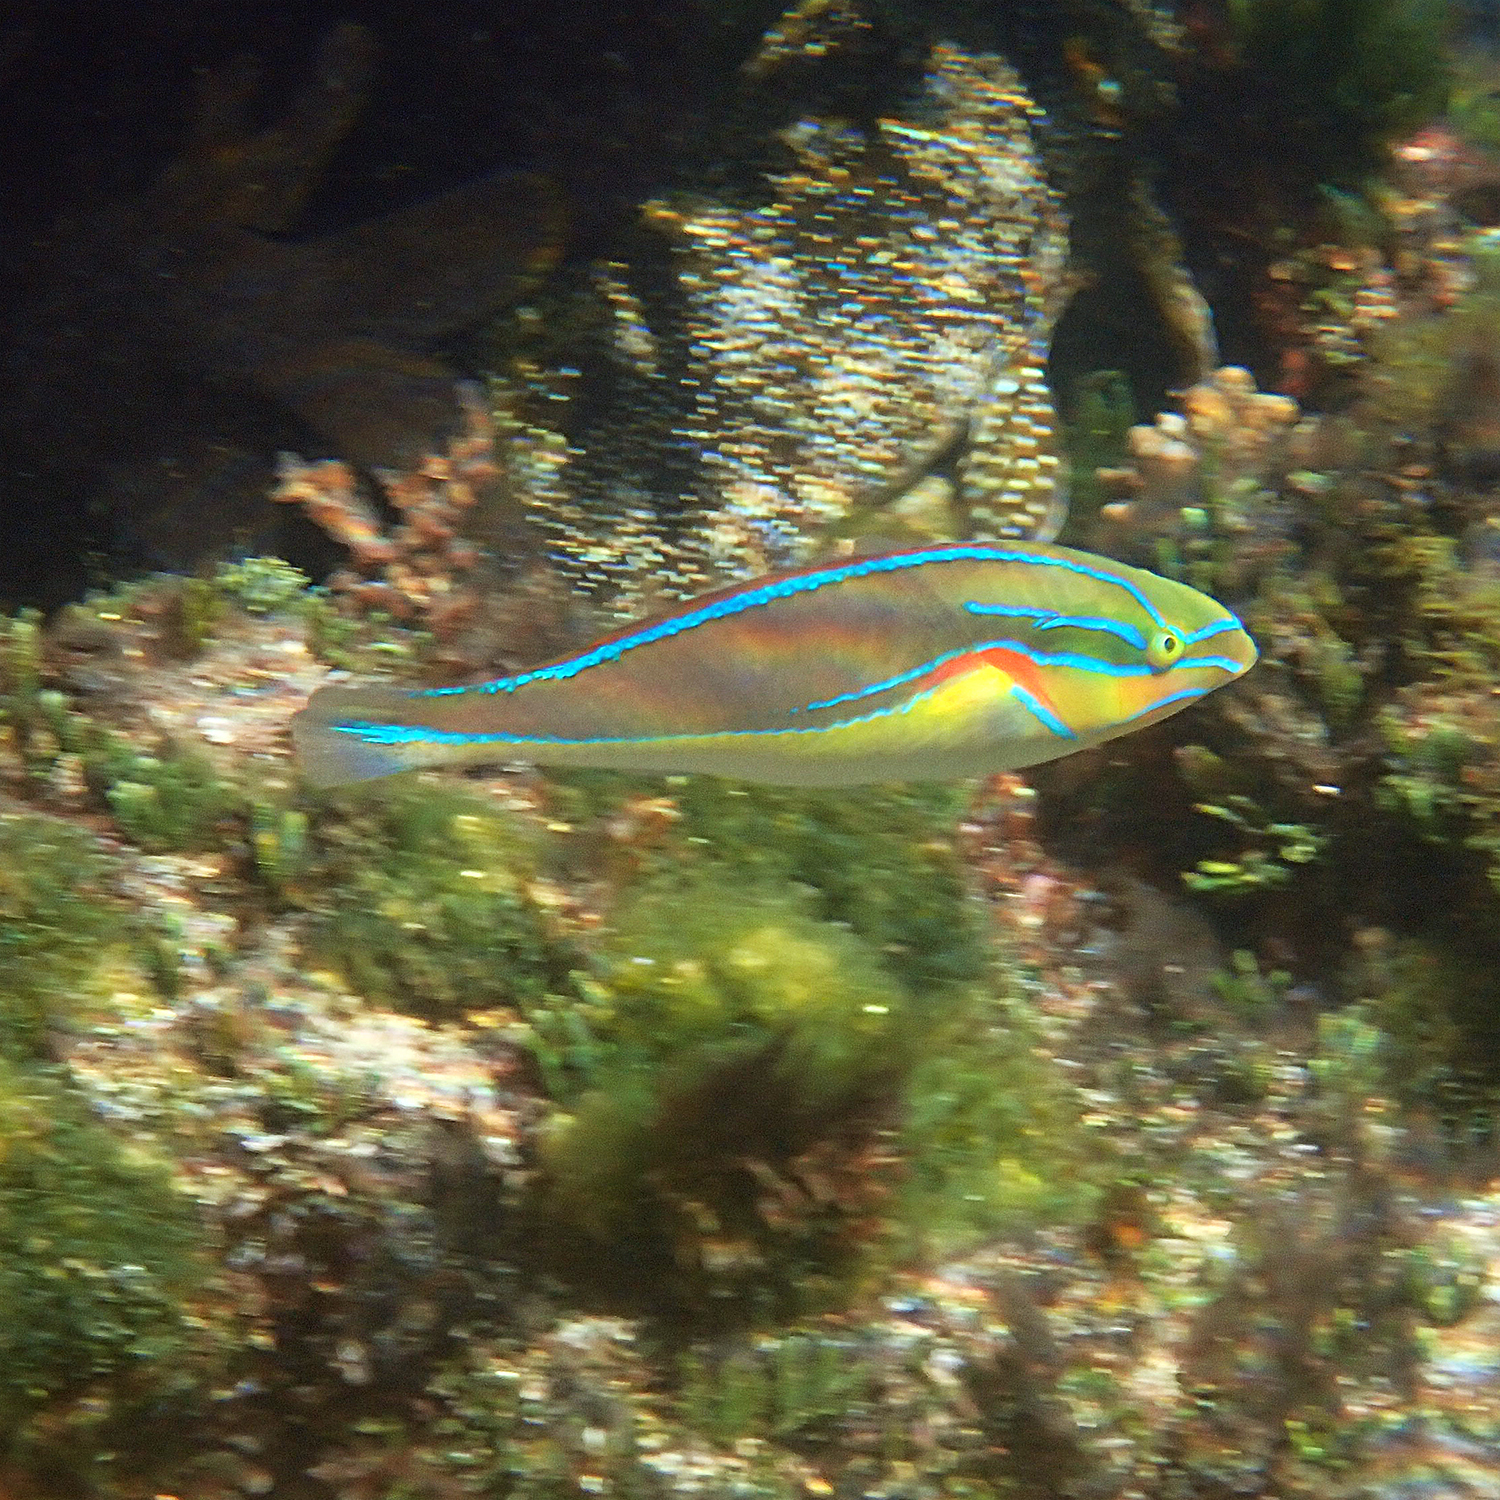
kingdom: Animalia
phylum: Chordata
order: Perciformes
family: Labridae
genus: Stethojulis
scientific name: Stethojulis bandanensis
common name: Red shoulder wrasse
